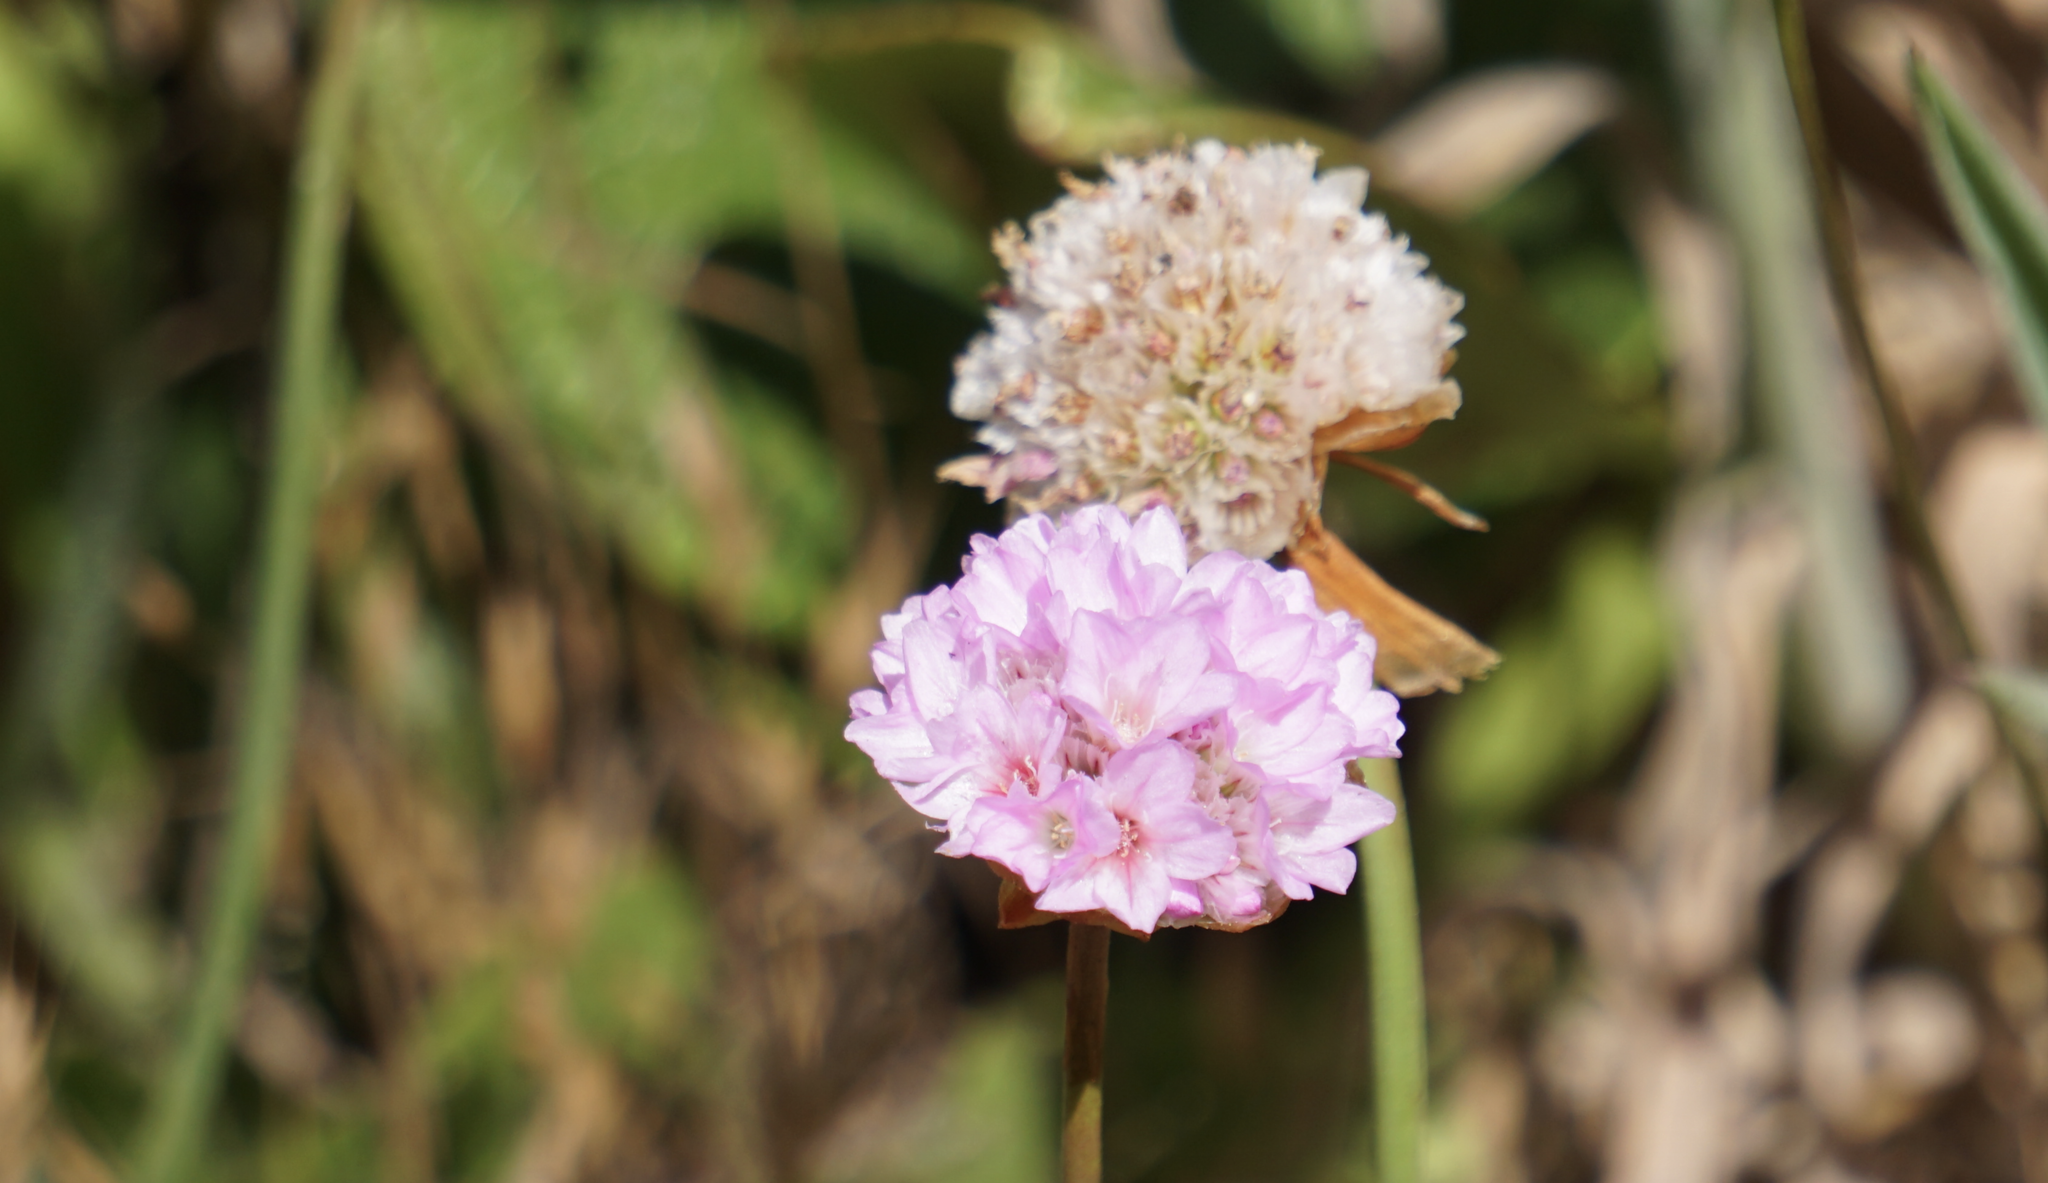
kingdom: Plantae
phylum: Tracheophyta
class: Magnoliopsida
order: Caryophyllales
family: Plumbaginaceae
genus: Armeria
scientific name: Armeria maritima
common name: Thrift
